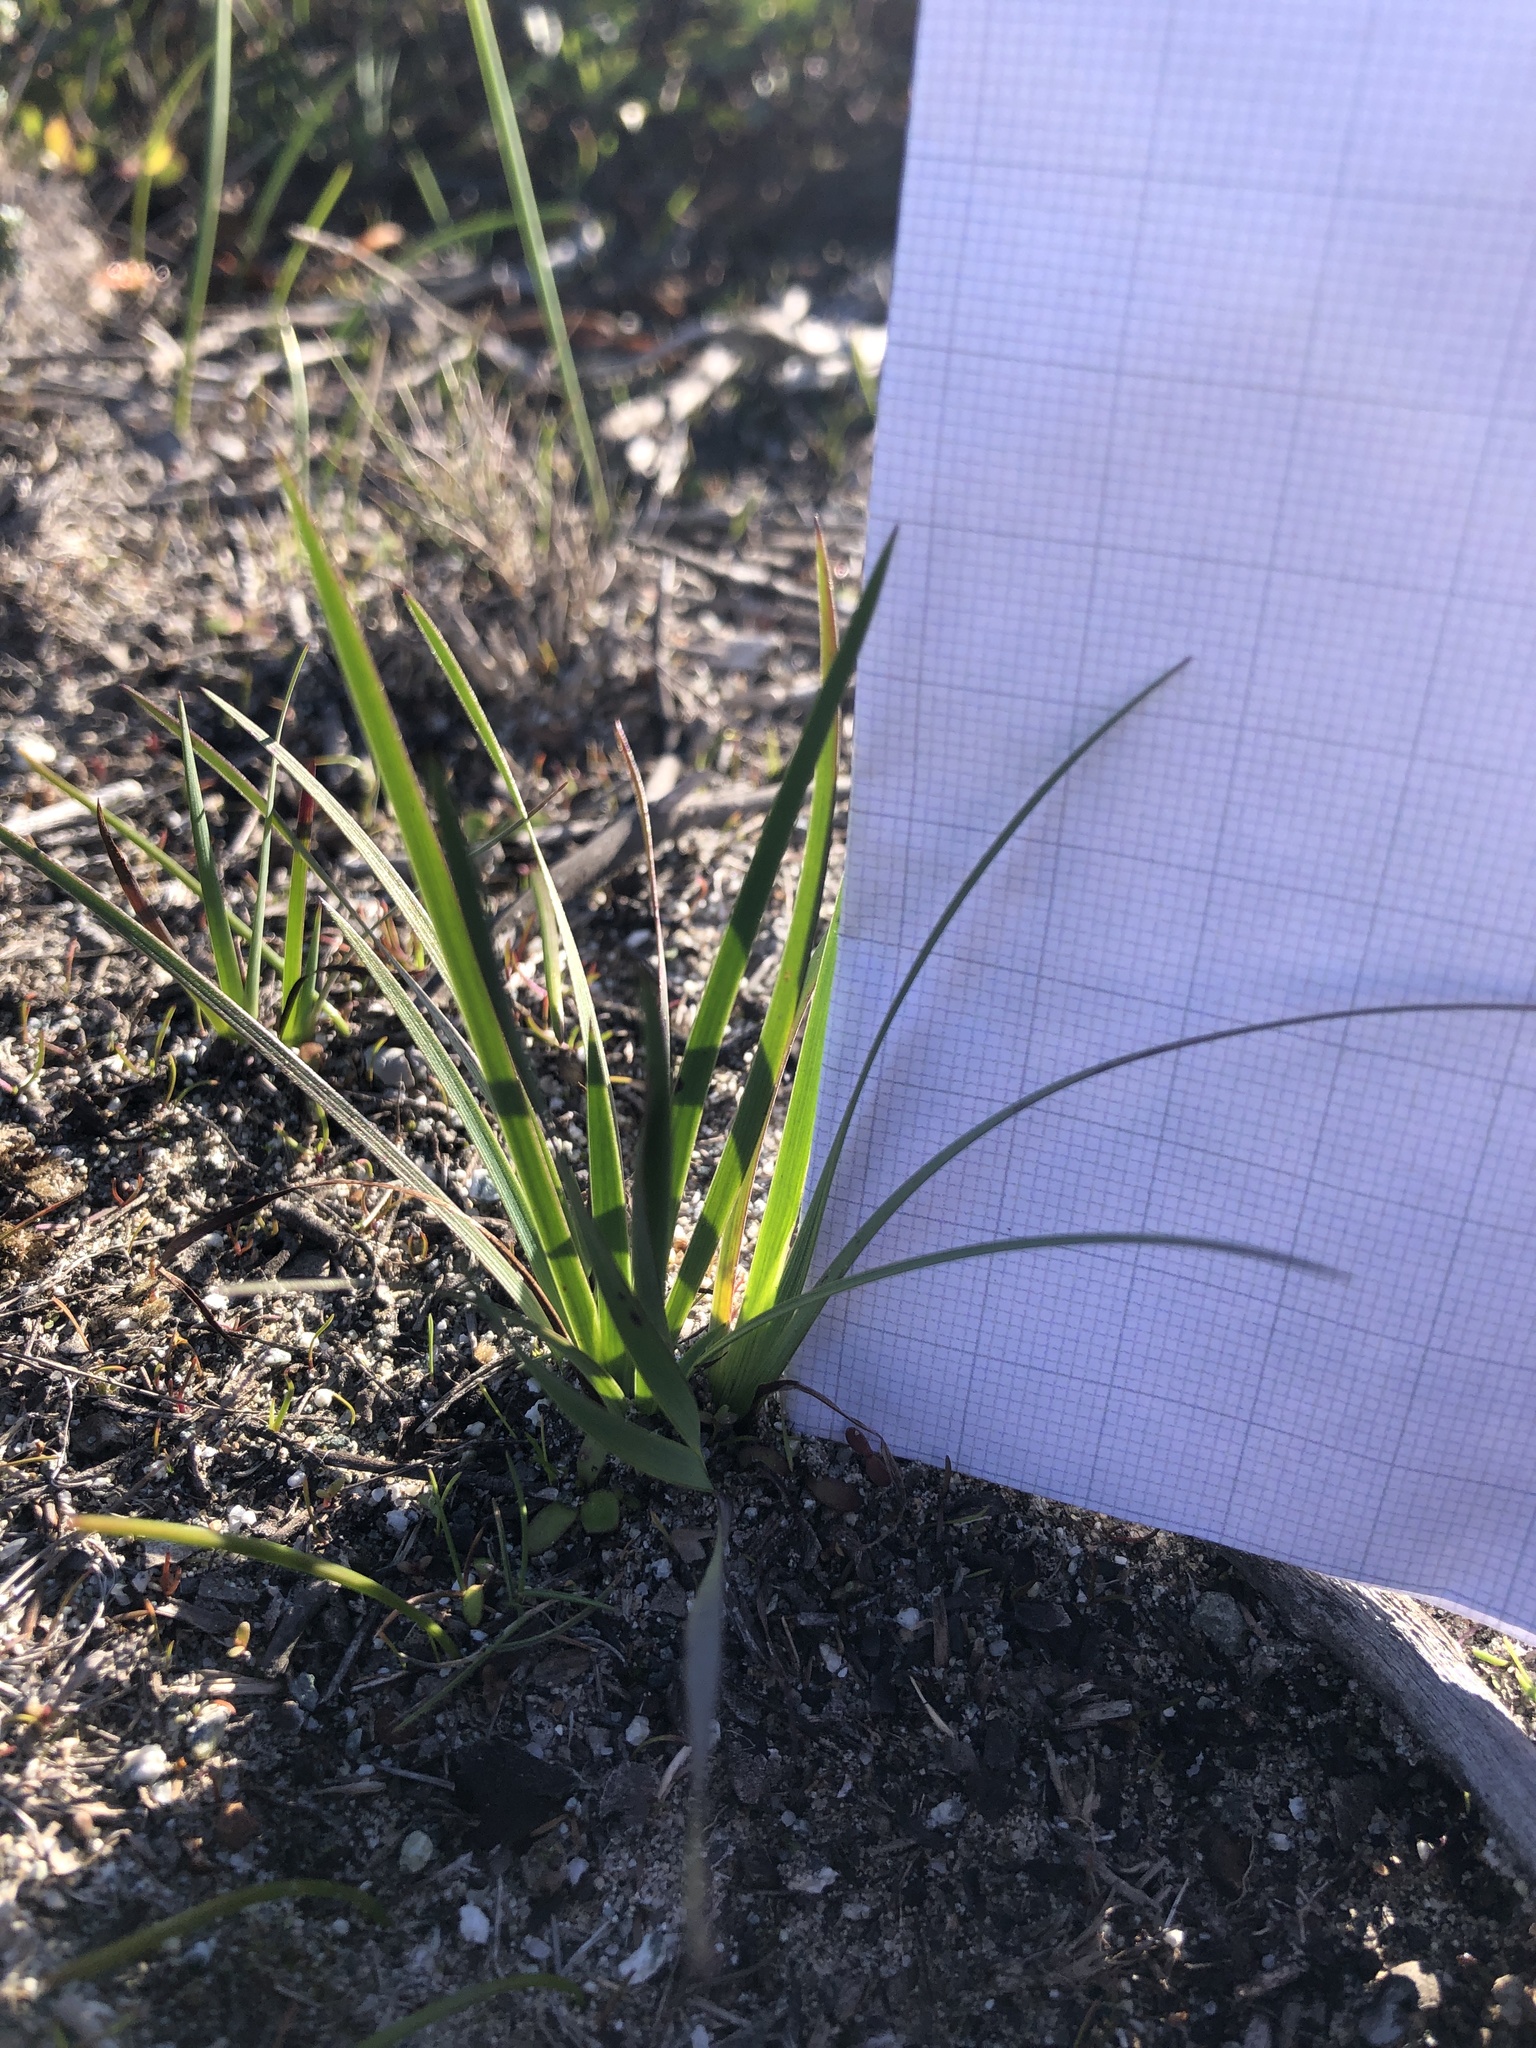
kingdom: Plantae
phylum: Tracheophyta
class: Liliopsida
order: Asparagales
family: Iridaceae
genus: Sisyrinchium
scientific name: Sisyrinchium bellum
